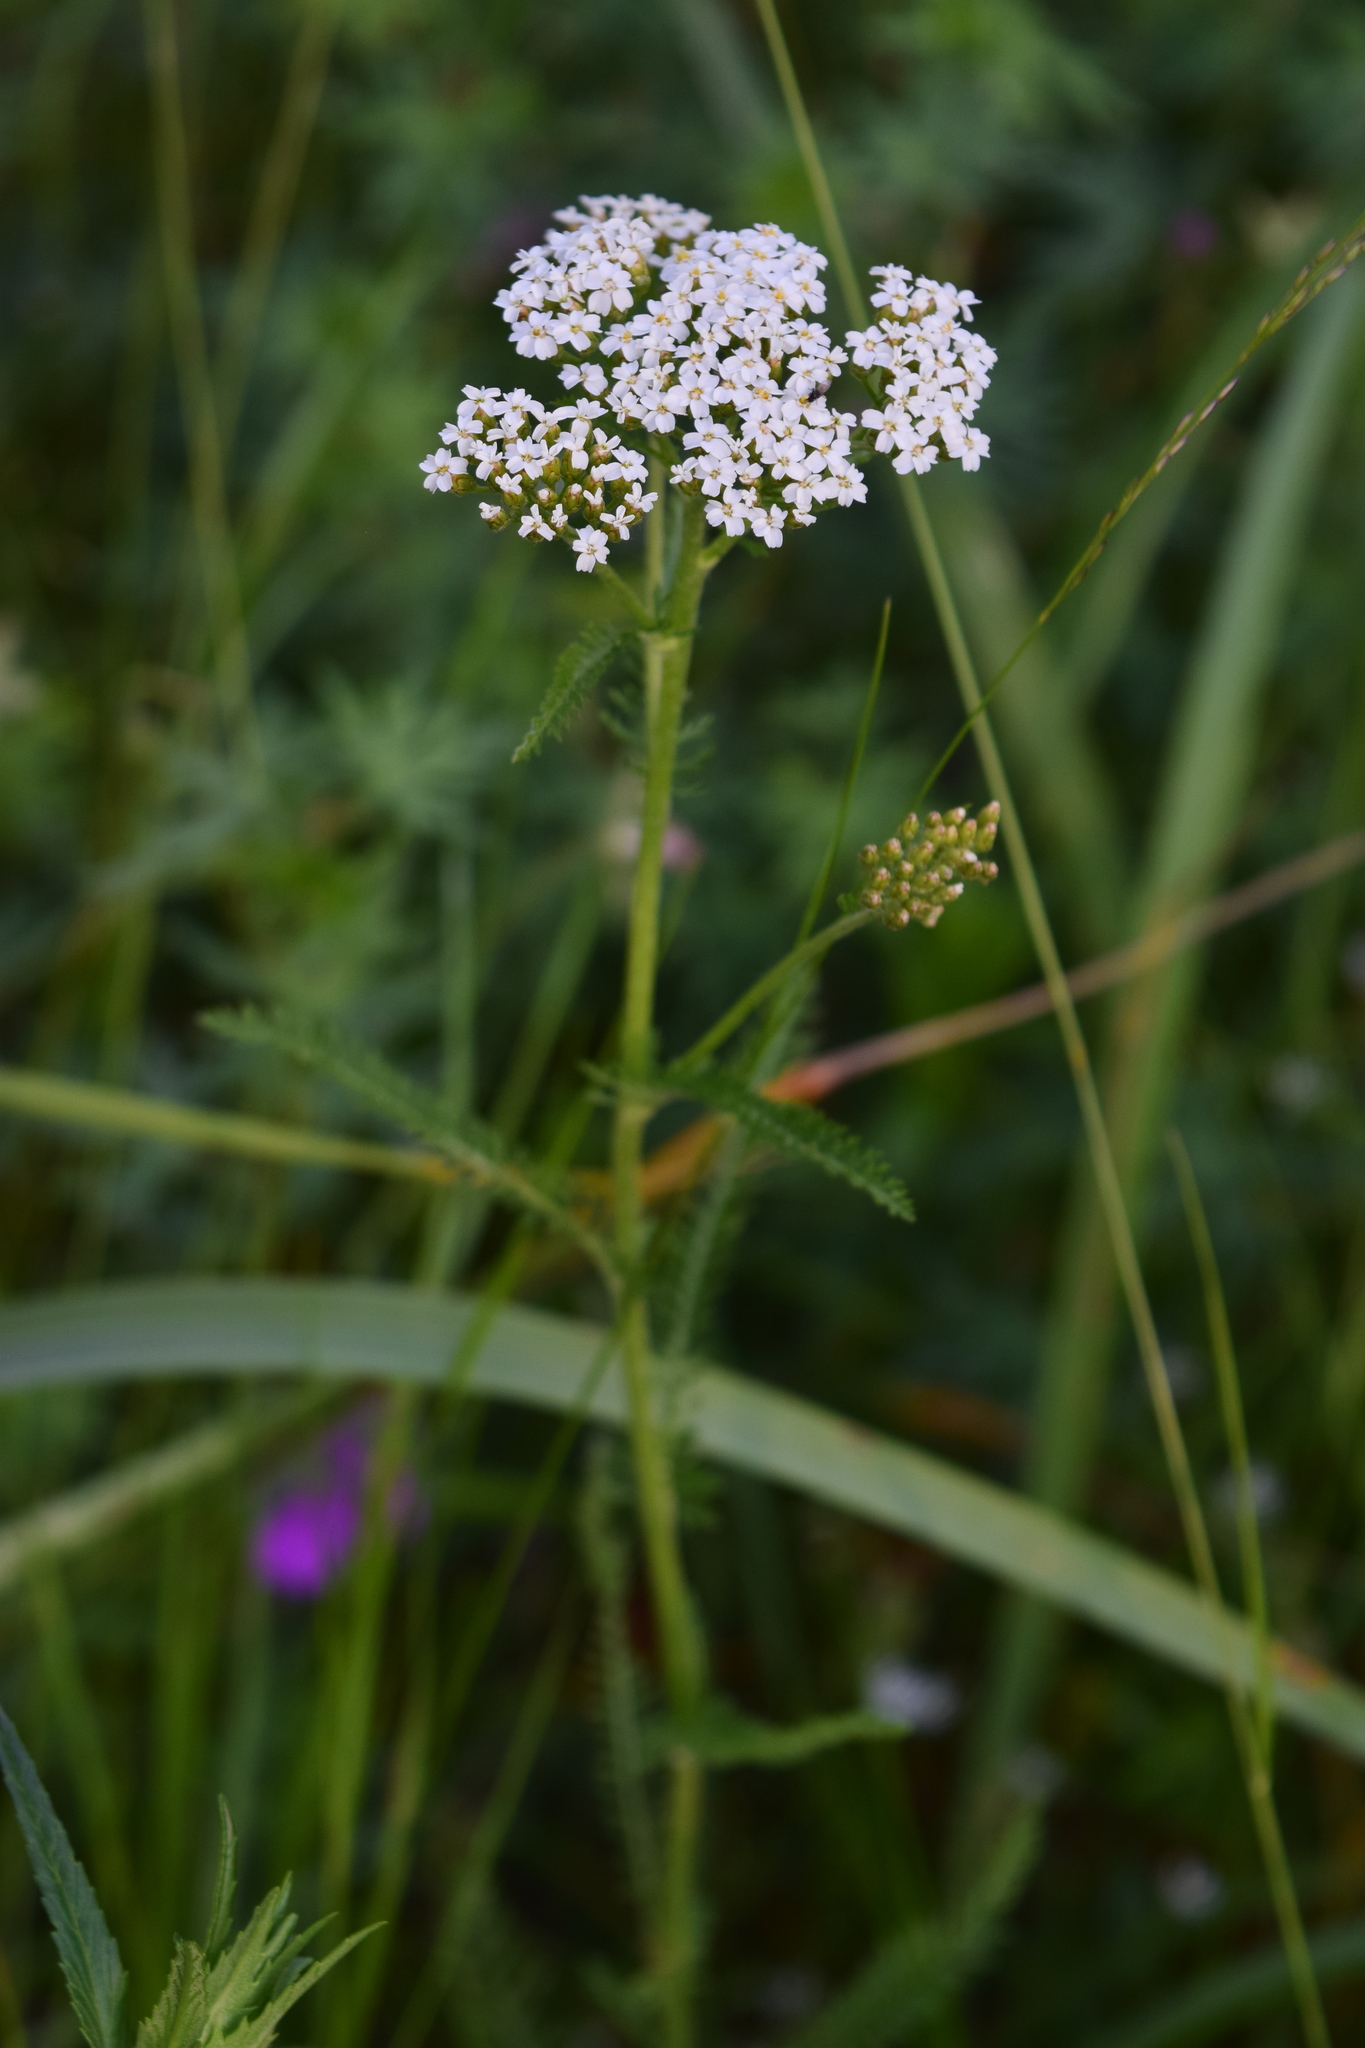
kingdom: Plantae
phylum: Tracheophyta
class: Magnoliopsida
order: Asterales
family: Asteraceae
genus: Achillea
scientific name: Achillea millefolium
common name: Yarrow
